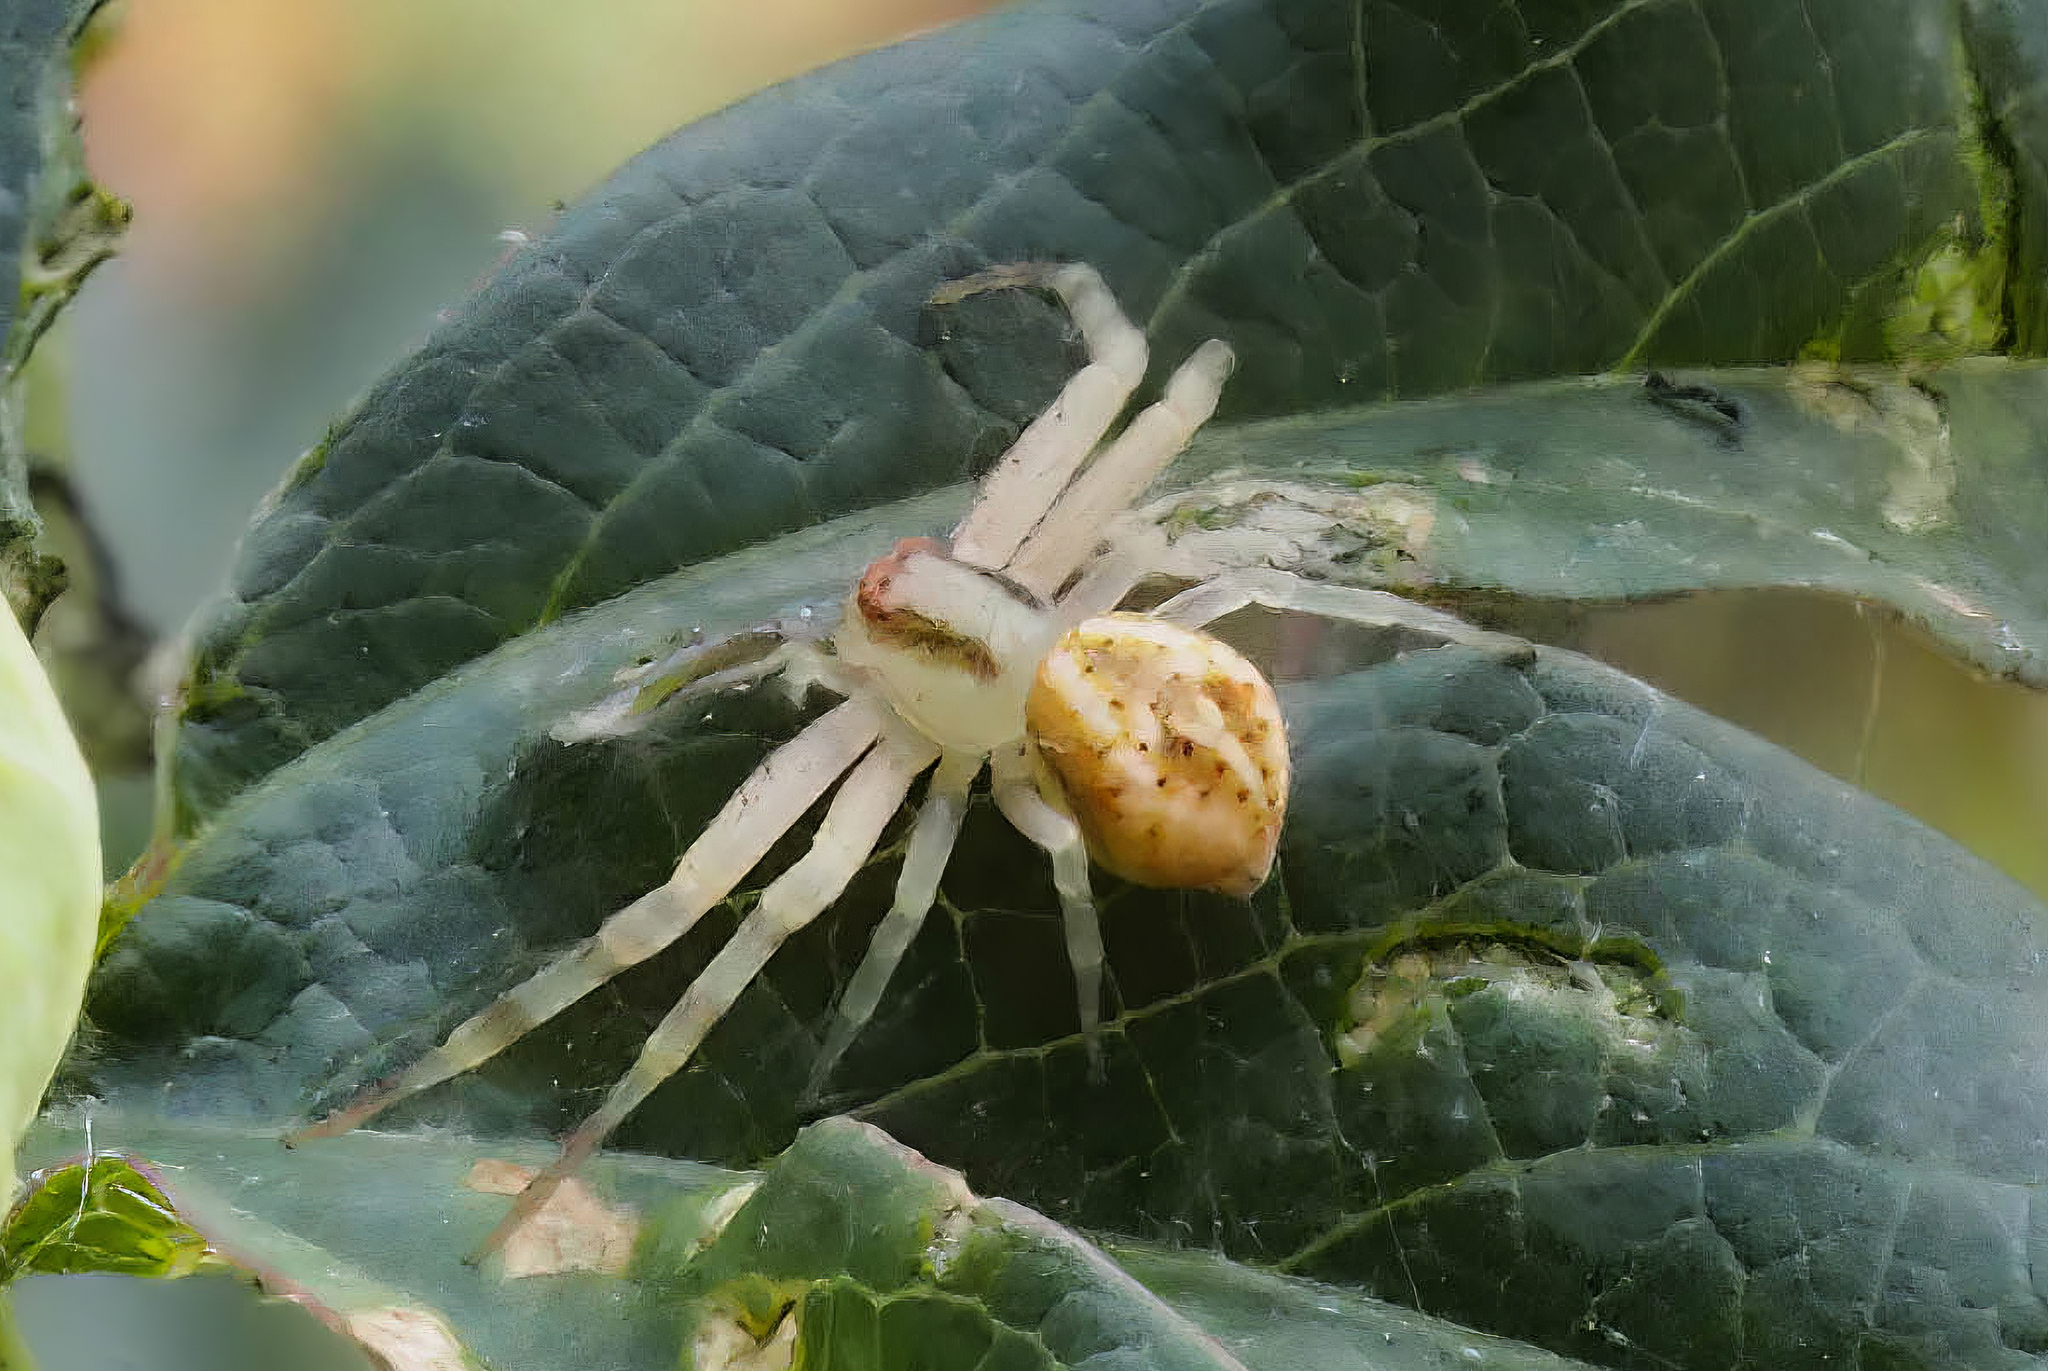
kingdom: Animalia
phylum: Arthropoda
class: Arachnida
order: Araneae
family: Thomisidae
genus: Misumenops
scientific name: Misumenops
